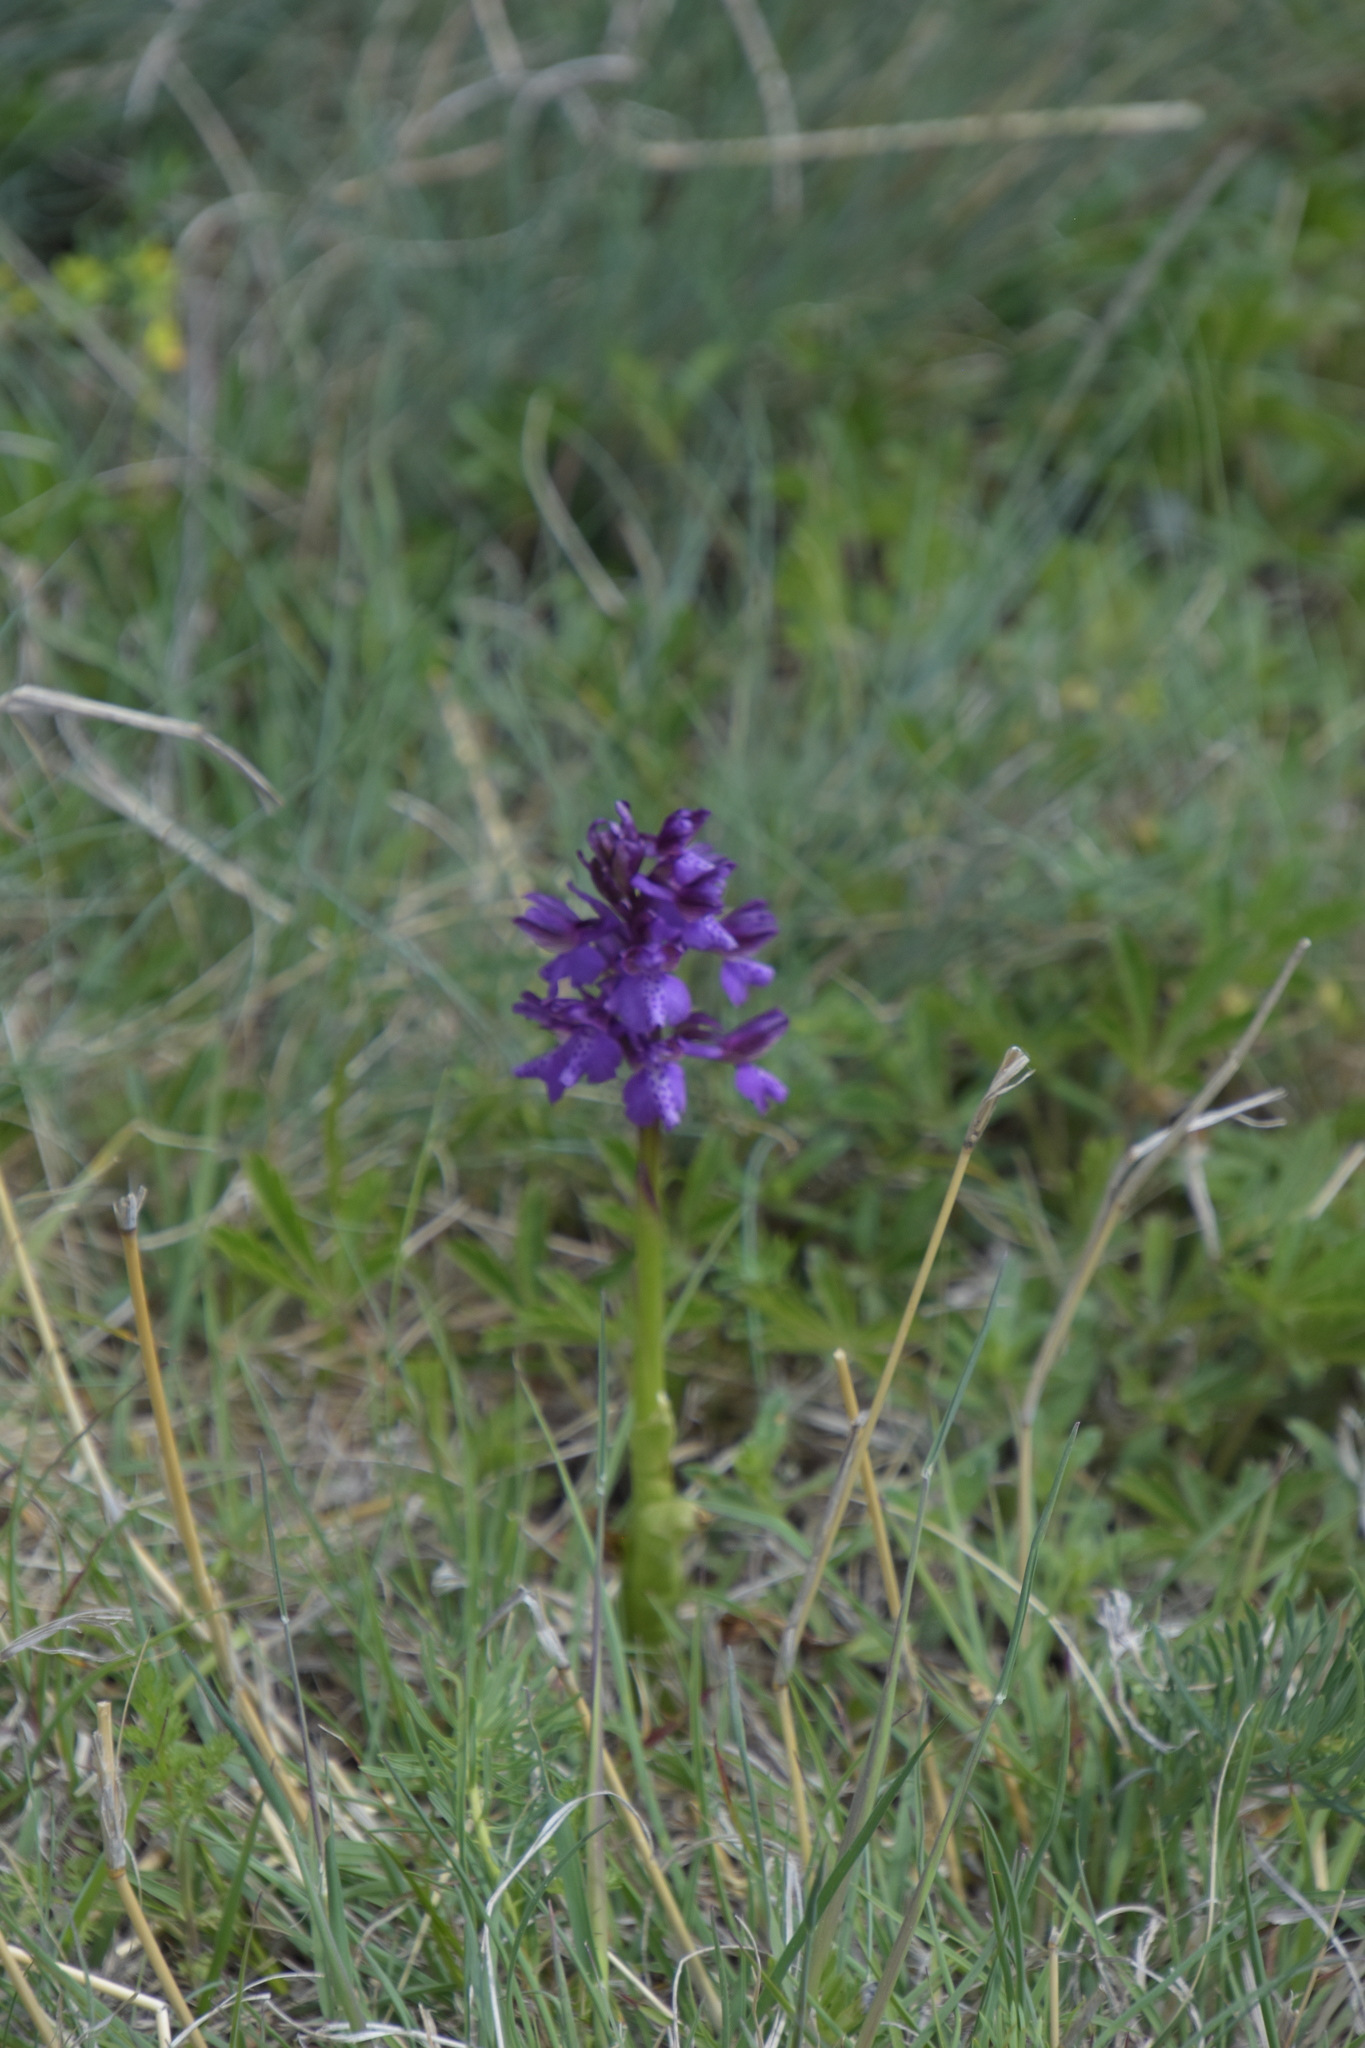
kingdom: Plantae
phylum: Tracheophyta
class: Liliopsida
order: Asparagales
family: Orchidaceae
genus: Anacamptis
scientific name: Anacamptis morio
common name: Green-winged orchid
